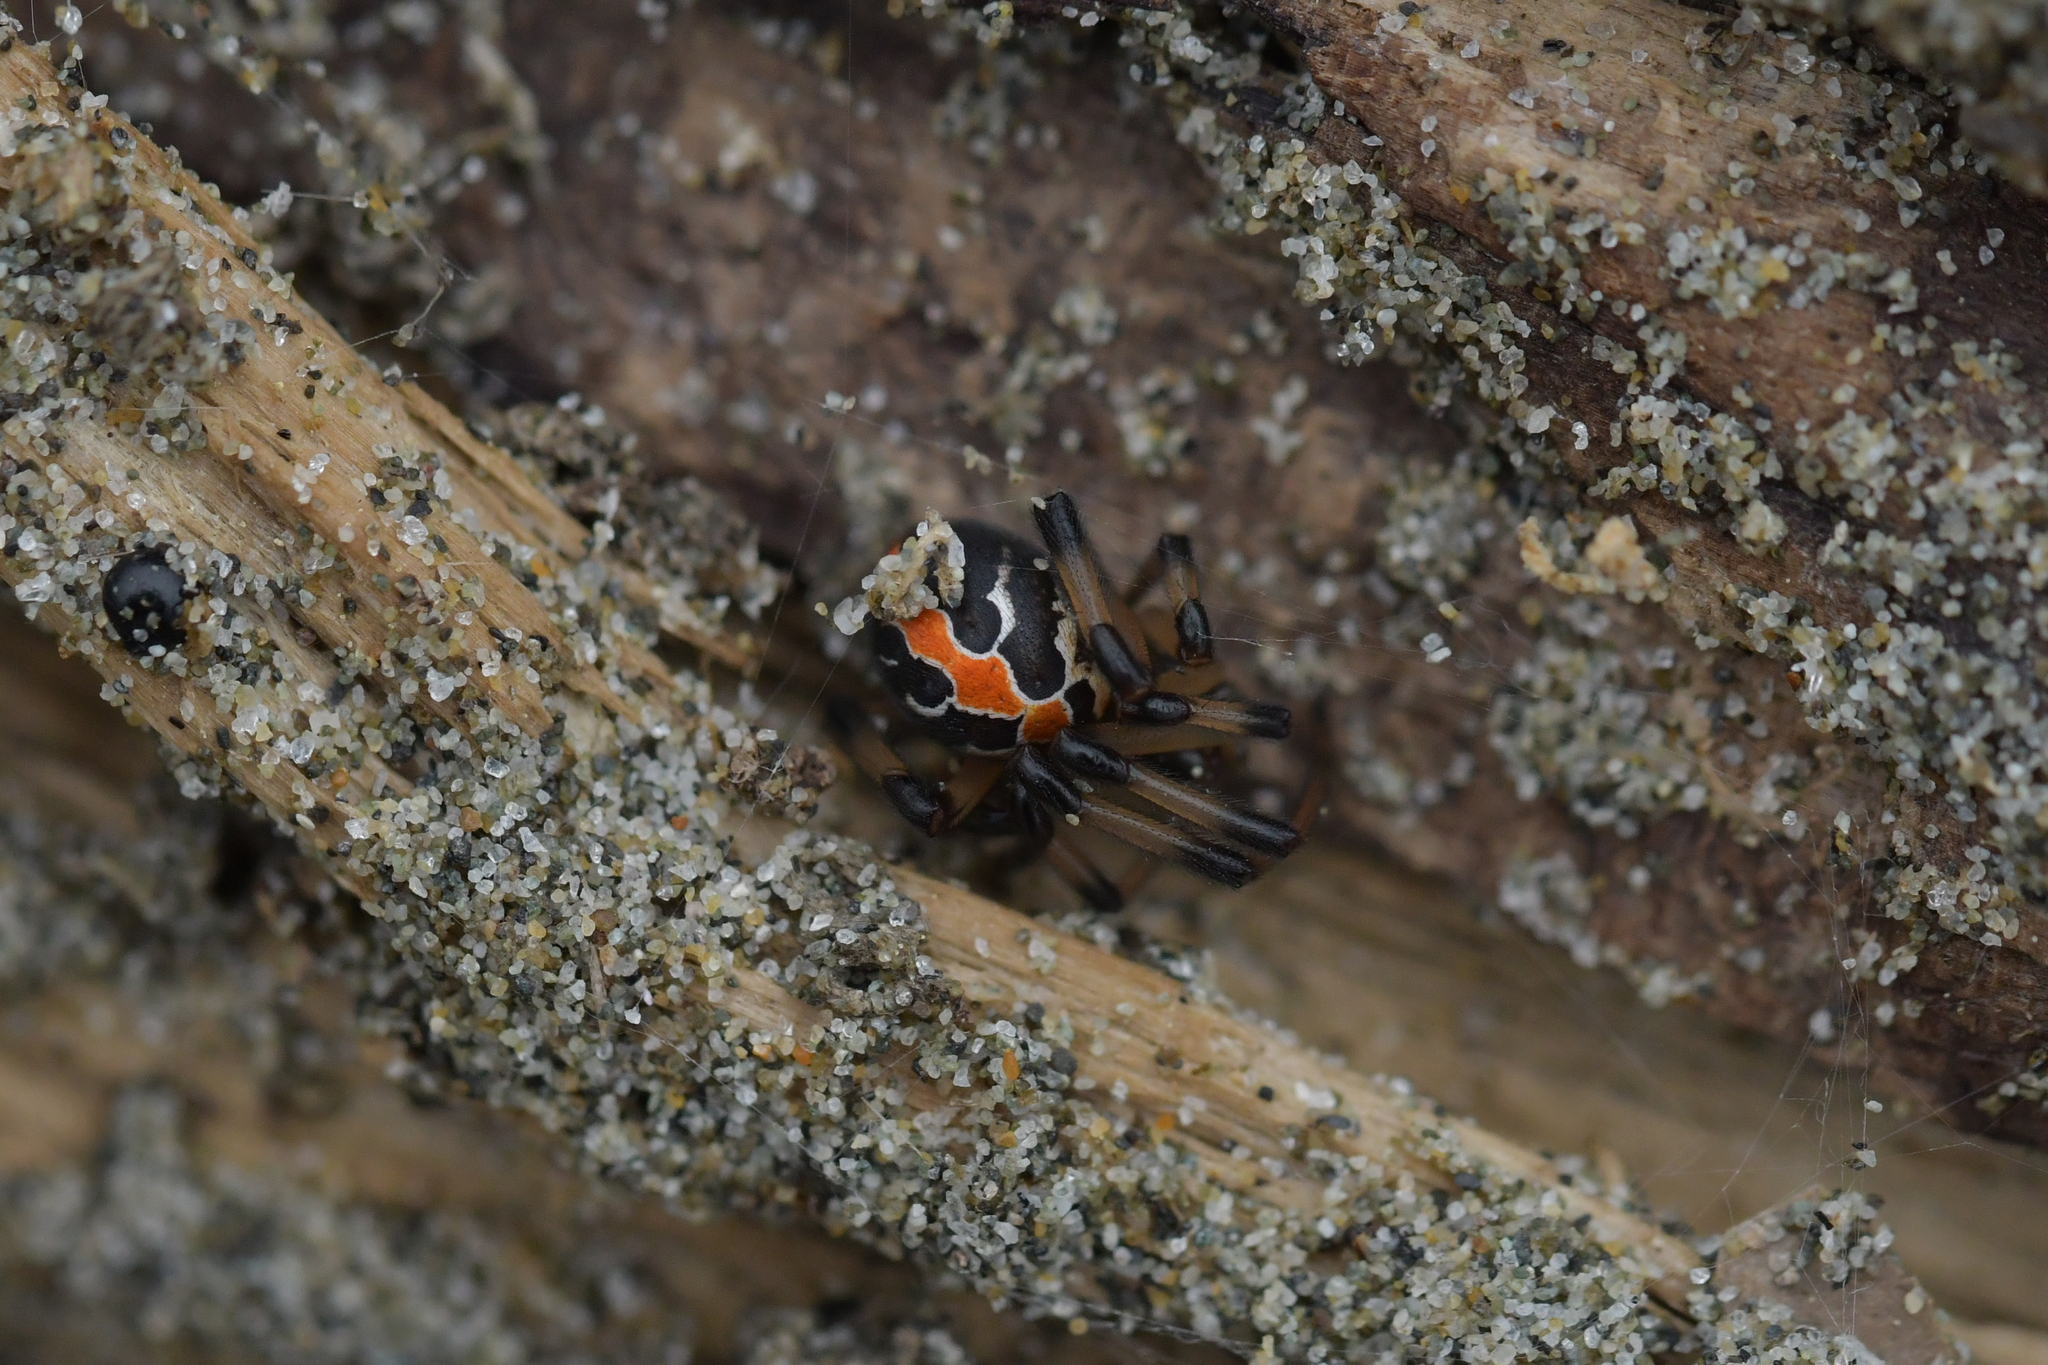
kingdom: Animalia
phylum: Arthropoda
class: Arachnida
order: Araneae
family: Theridiidae
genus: Latrodectus
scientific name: Latrodectus katipo
